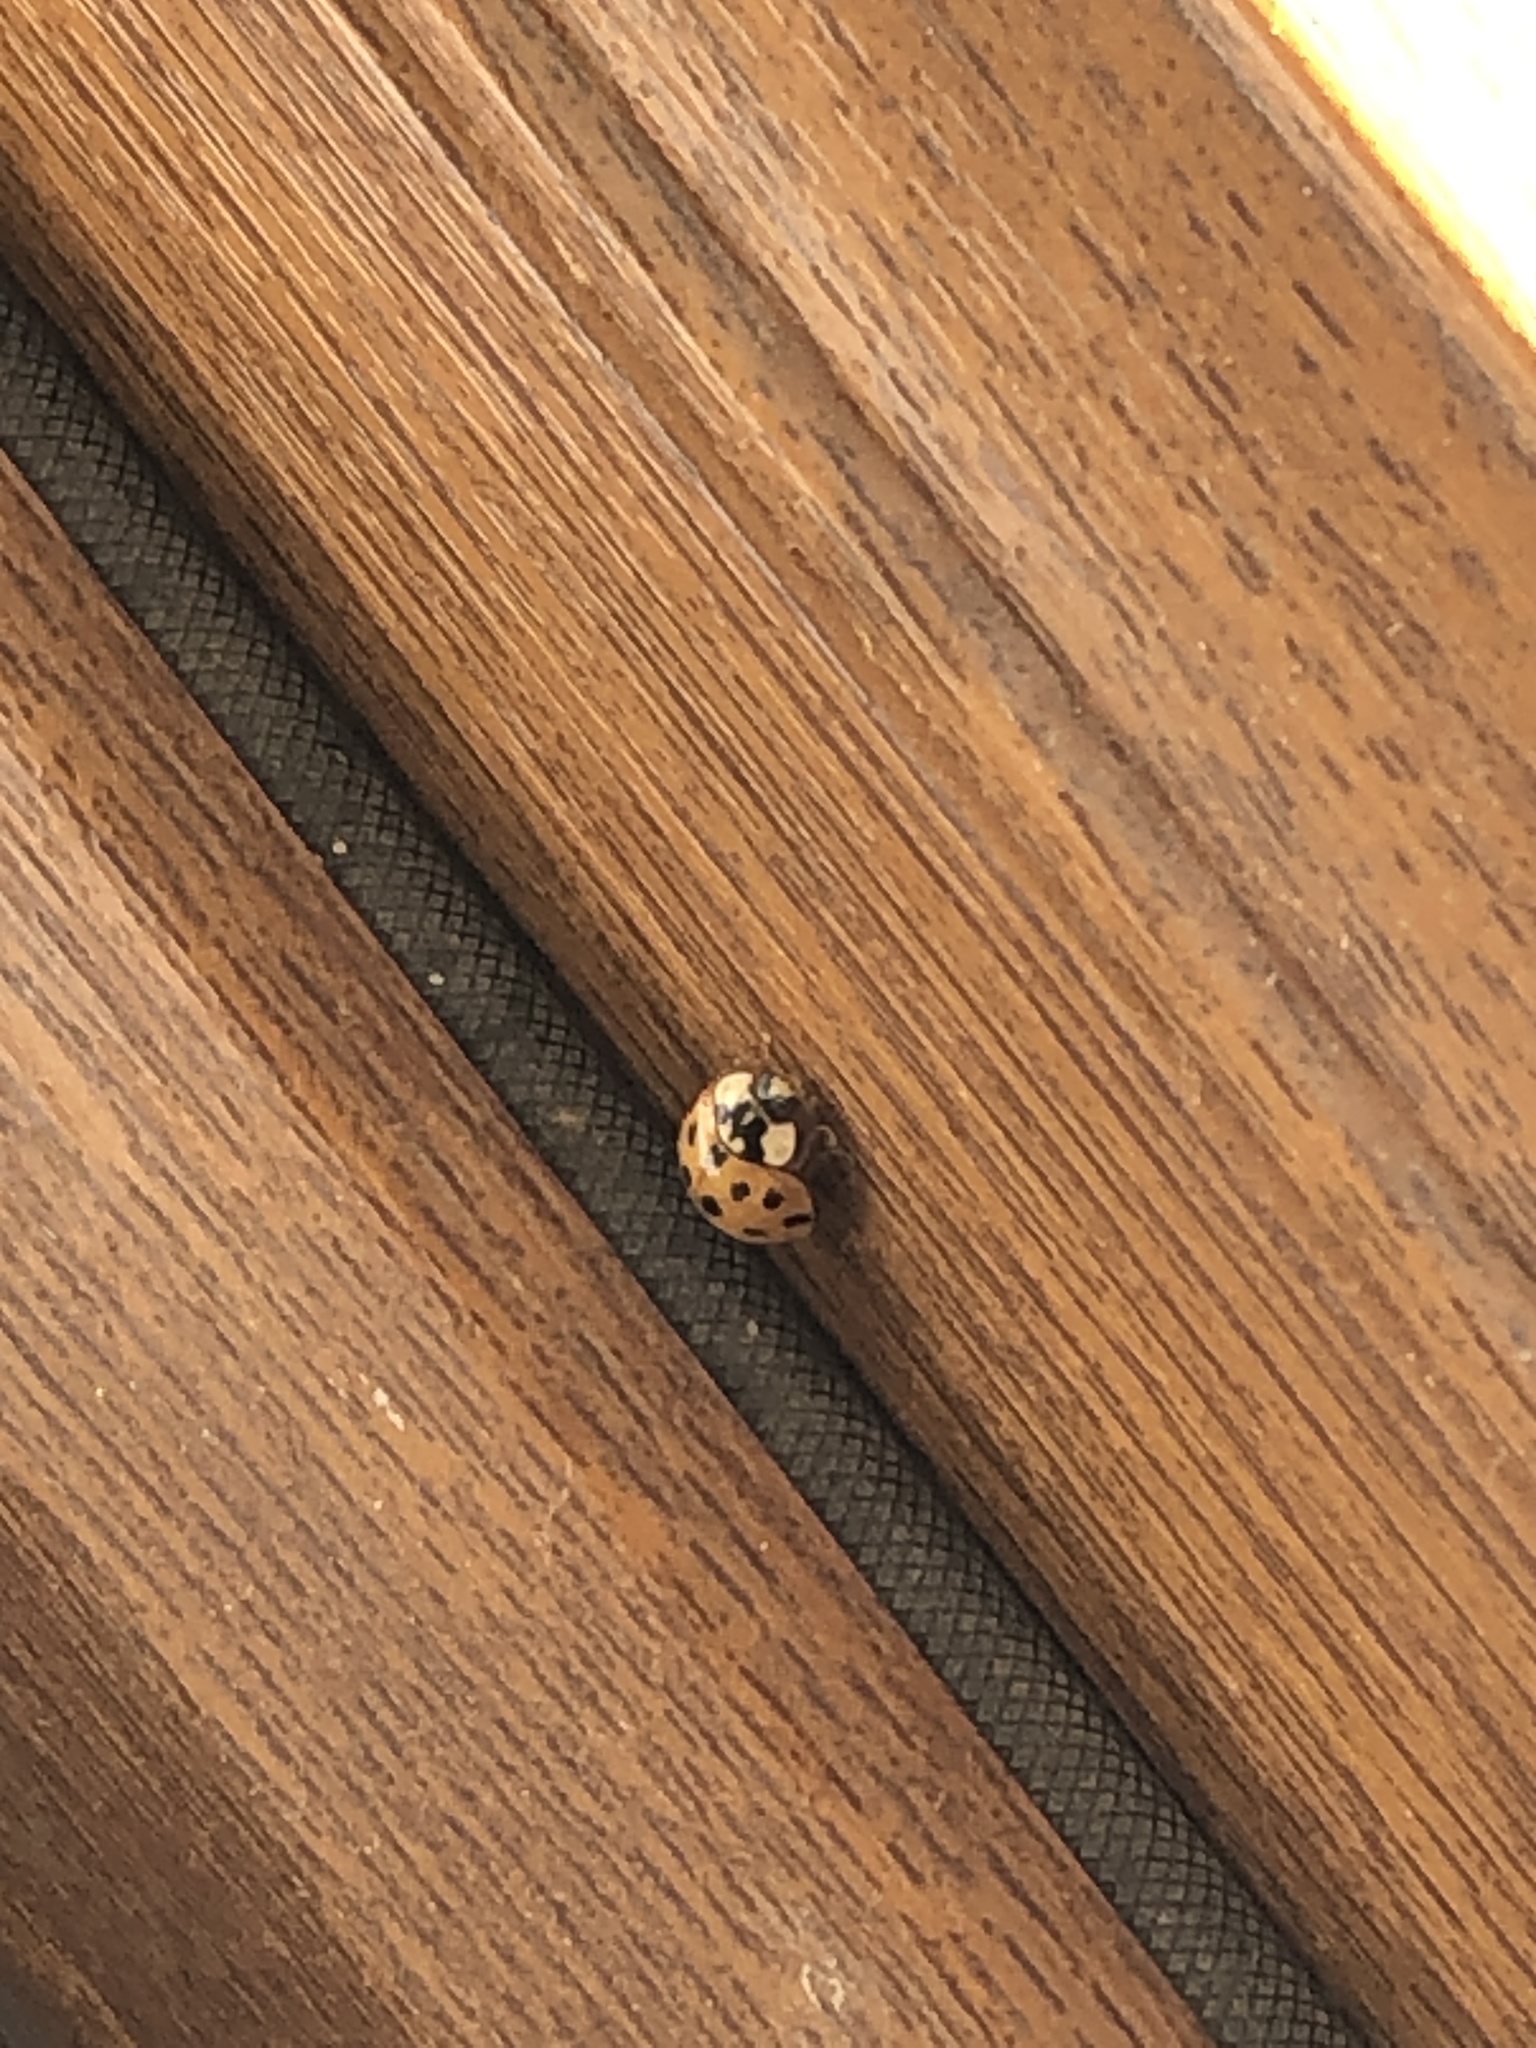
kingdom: Animalia
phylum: Arthropoda
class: Insecta
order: Coleoptera
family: Coccinellidae
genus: Harmonia
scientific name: Harmonia axyridis
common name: Harlequin ladybird
